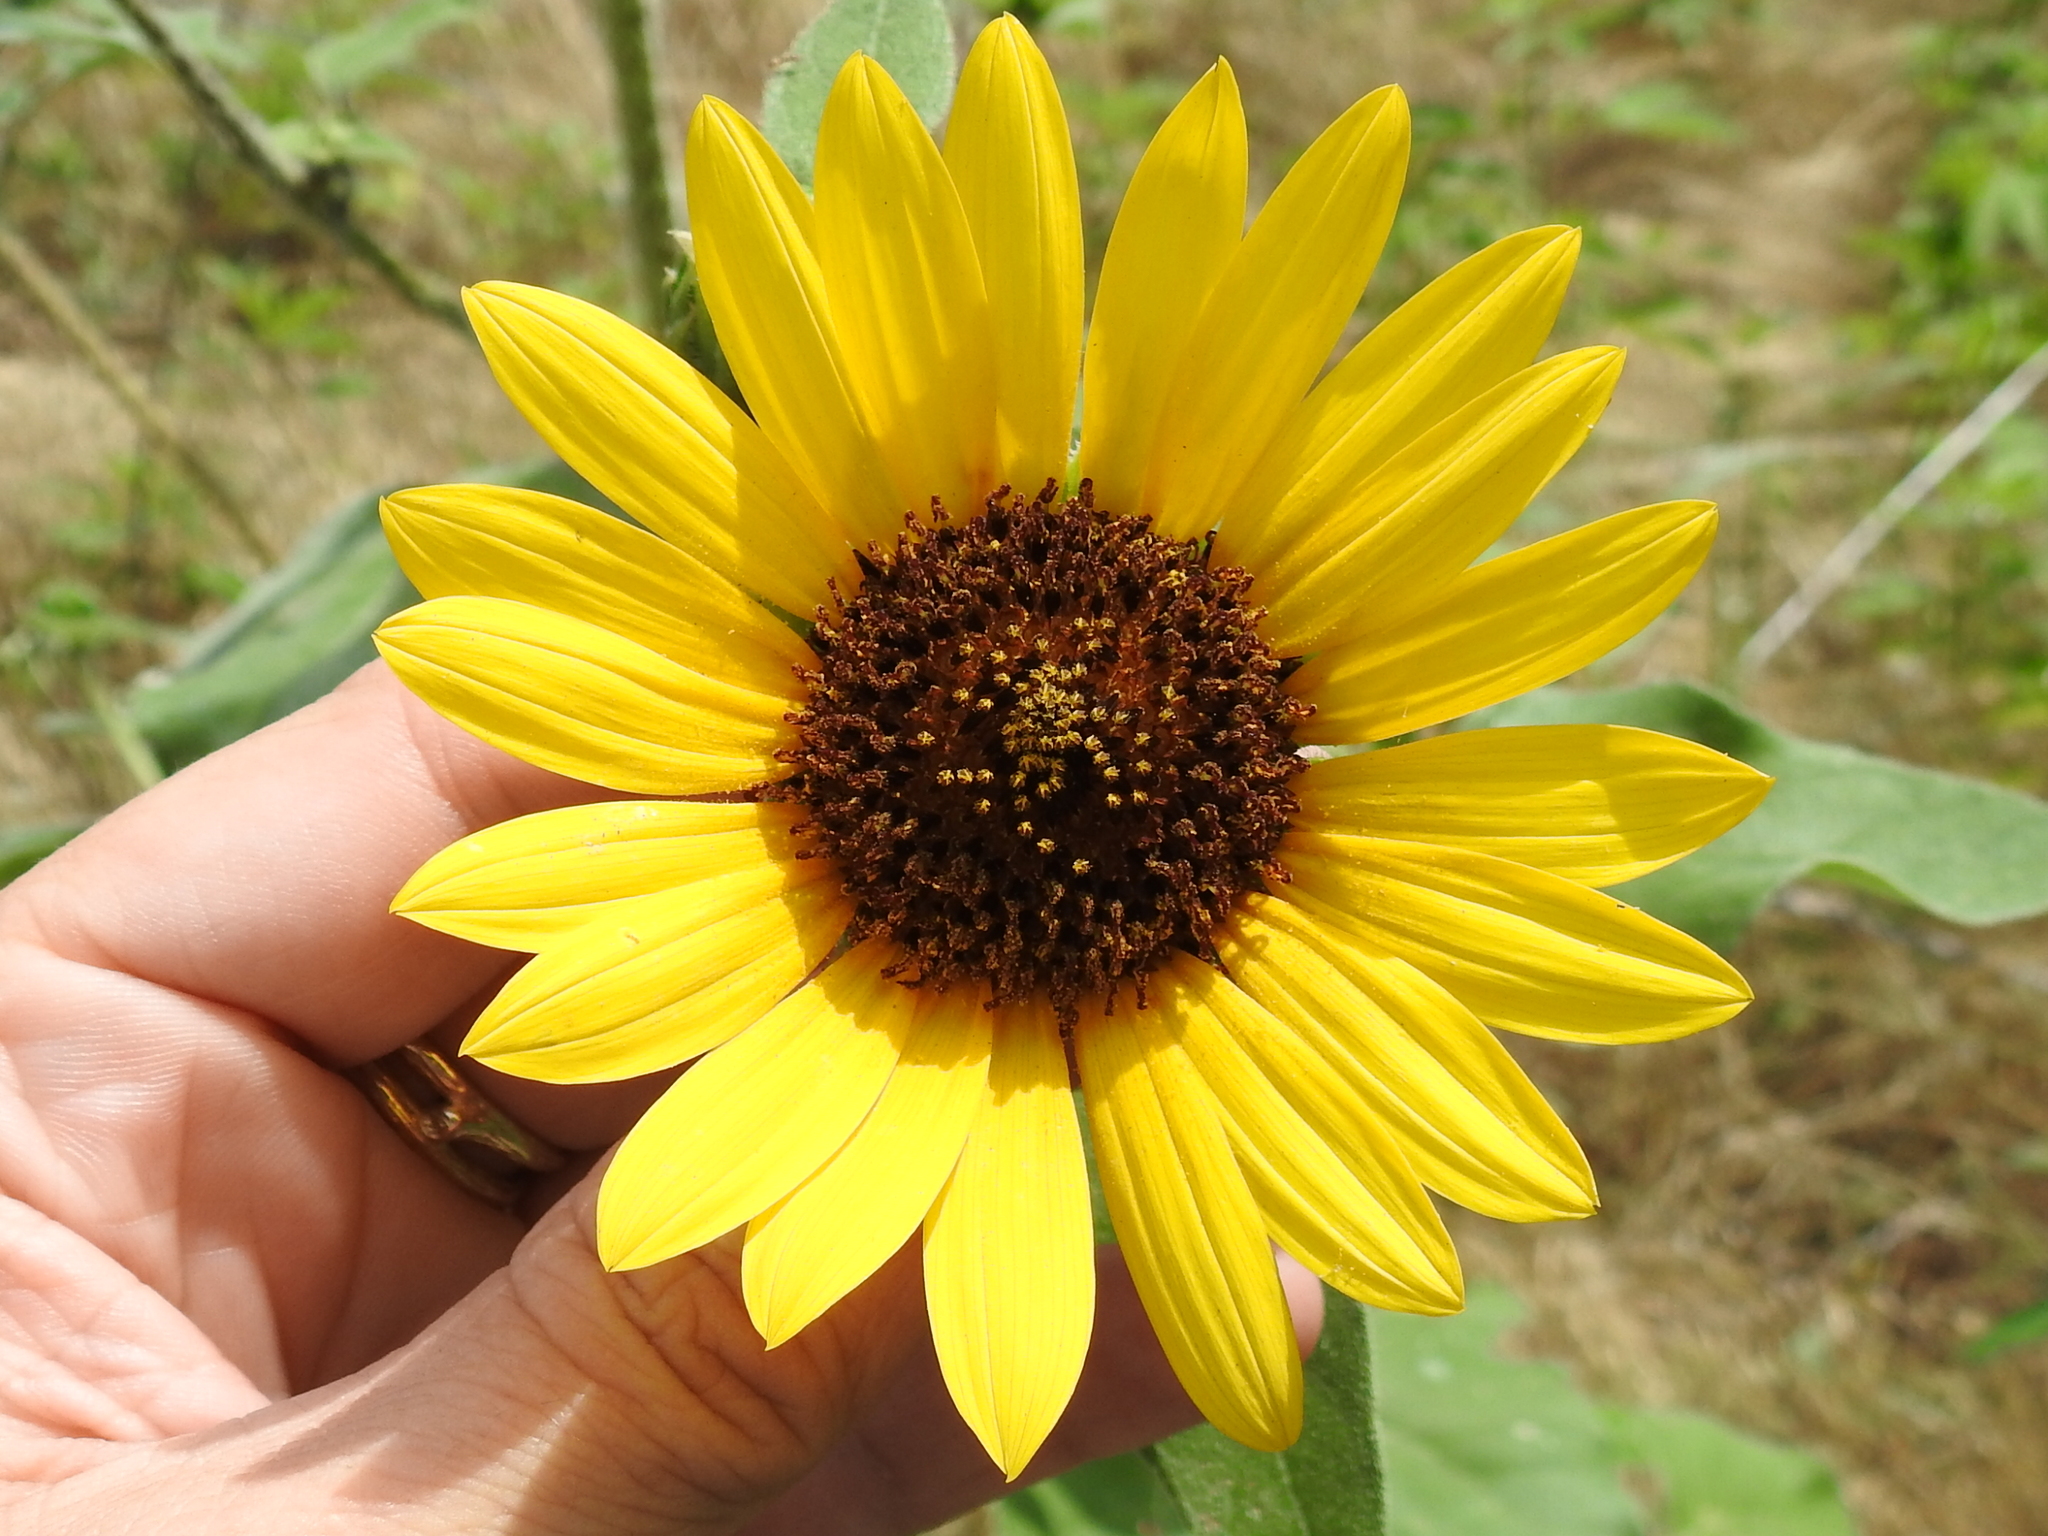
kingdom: Plantae
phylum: Tracheophyta
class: Magnoliopsida
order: Asterales
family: Asteraceae
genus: Helianthus
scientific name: Helianthus annuus
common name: Sunflower
